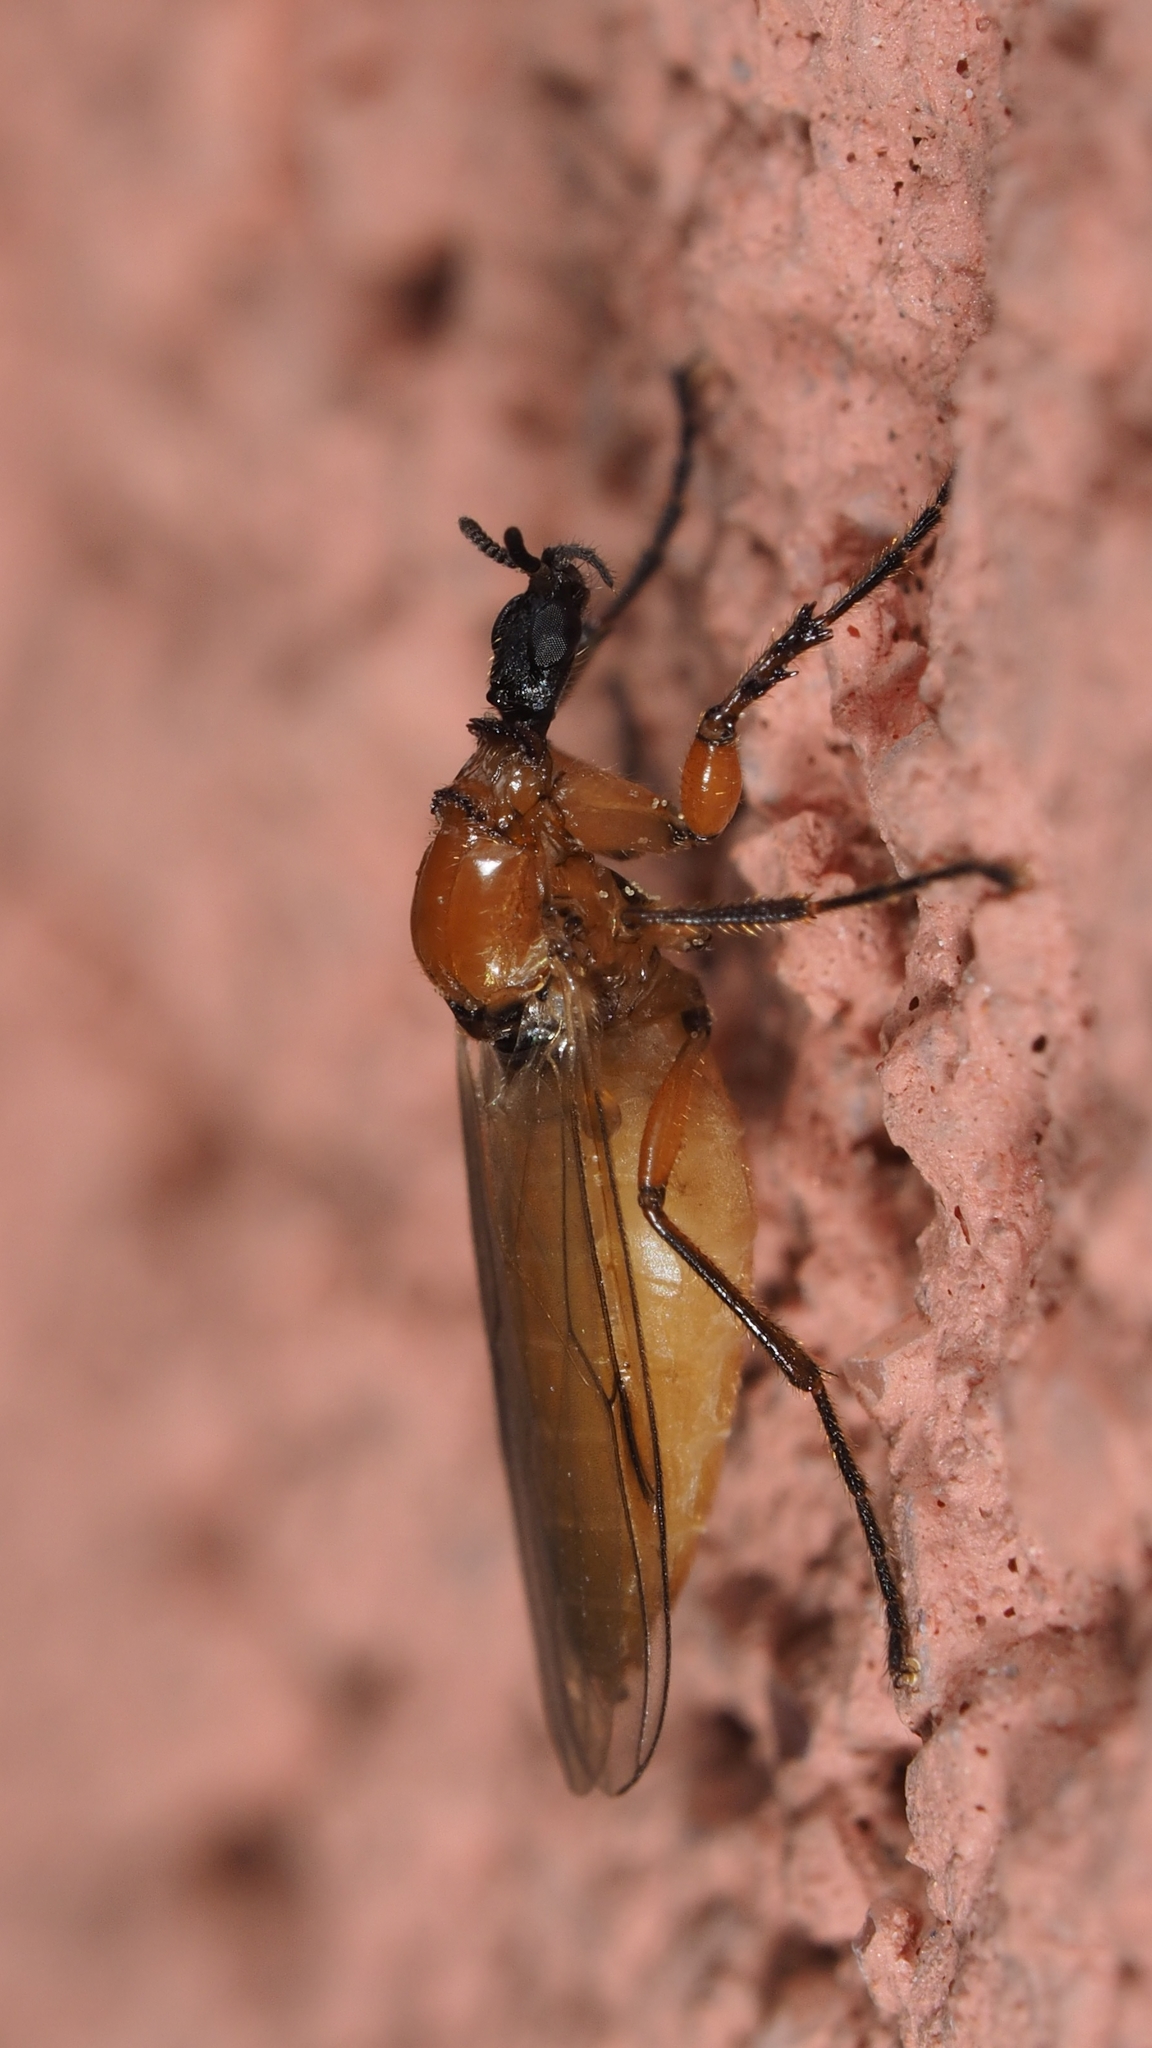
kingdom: Animalia
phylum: Arthropoda
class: Insecta
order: Diptera
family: Bibionidae
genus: Dilophus
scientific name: Dilophus bispinosus
